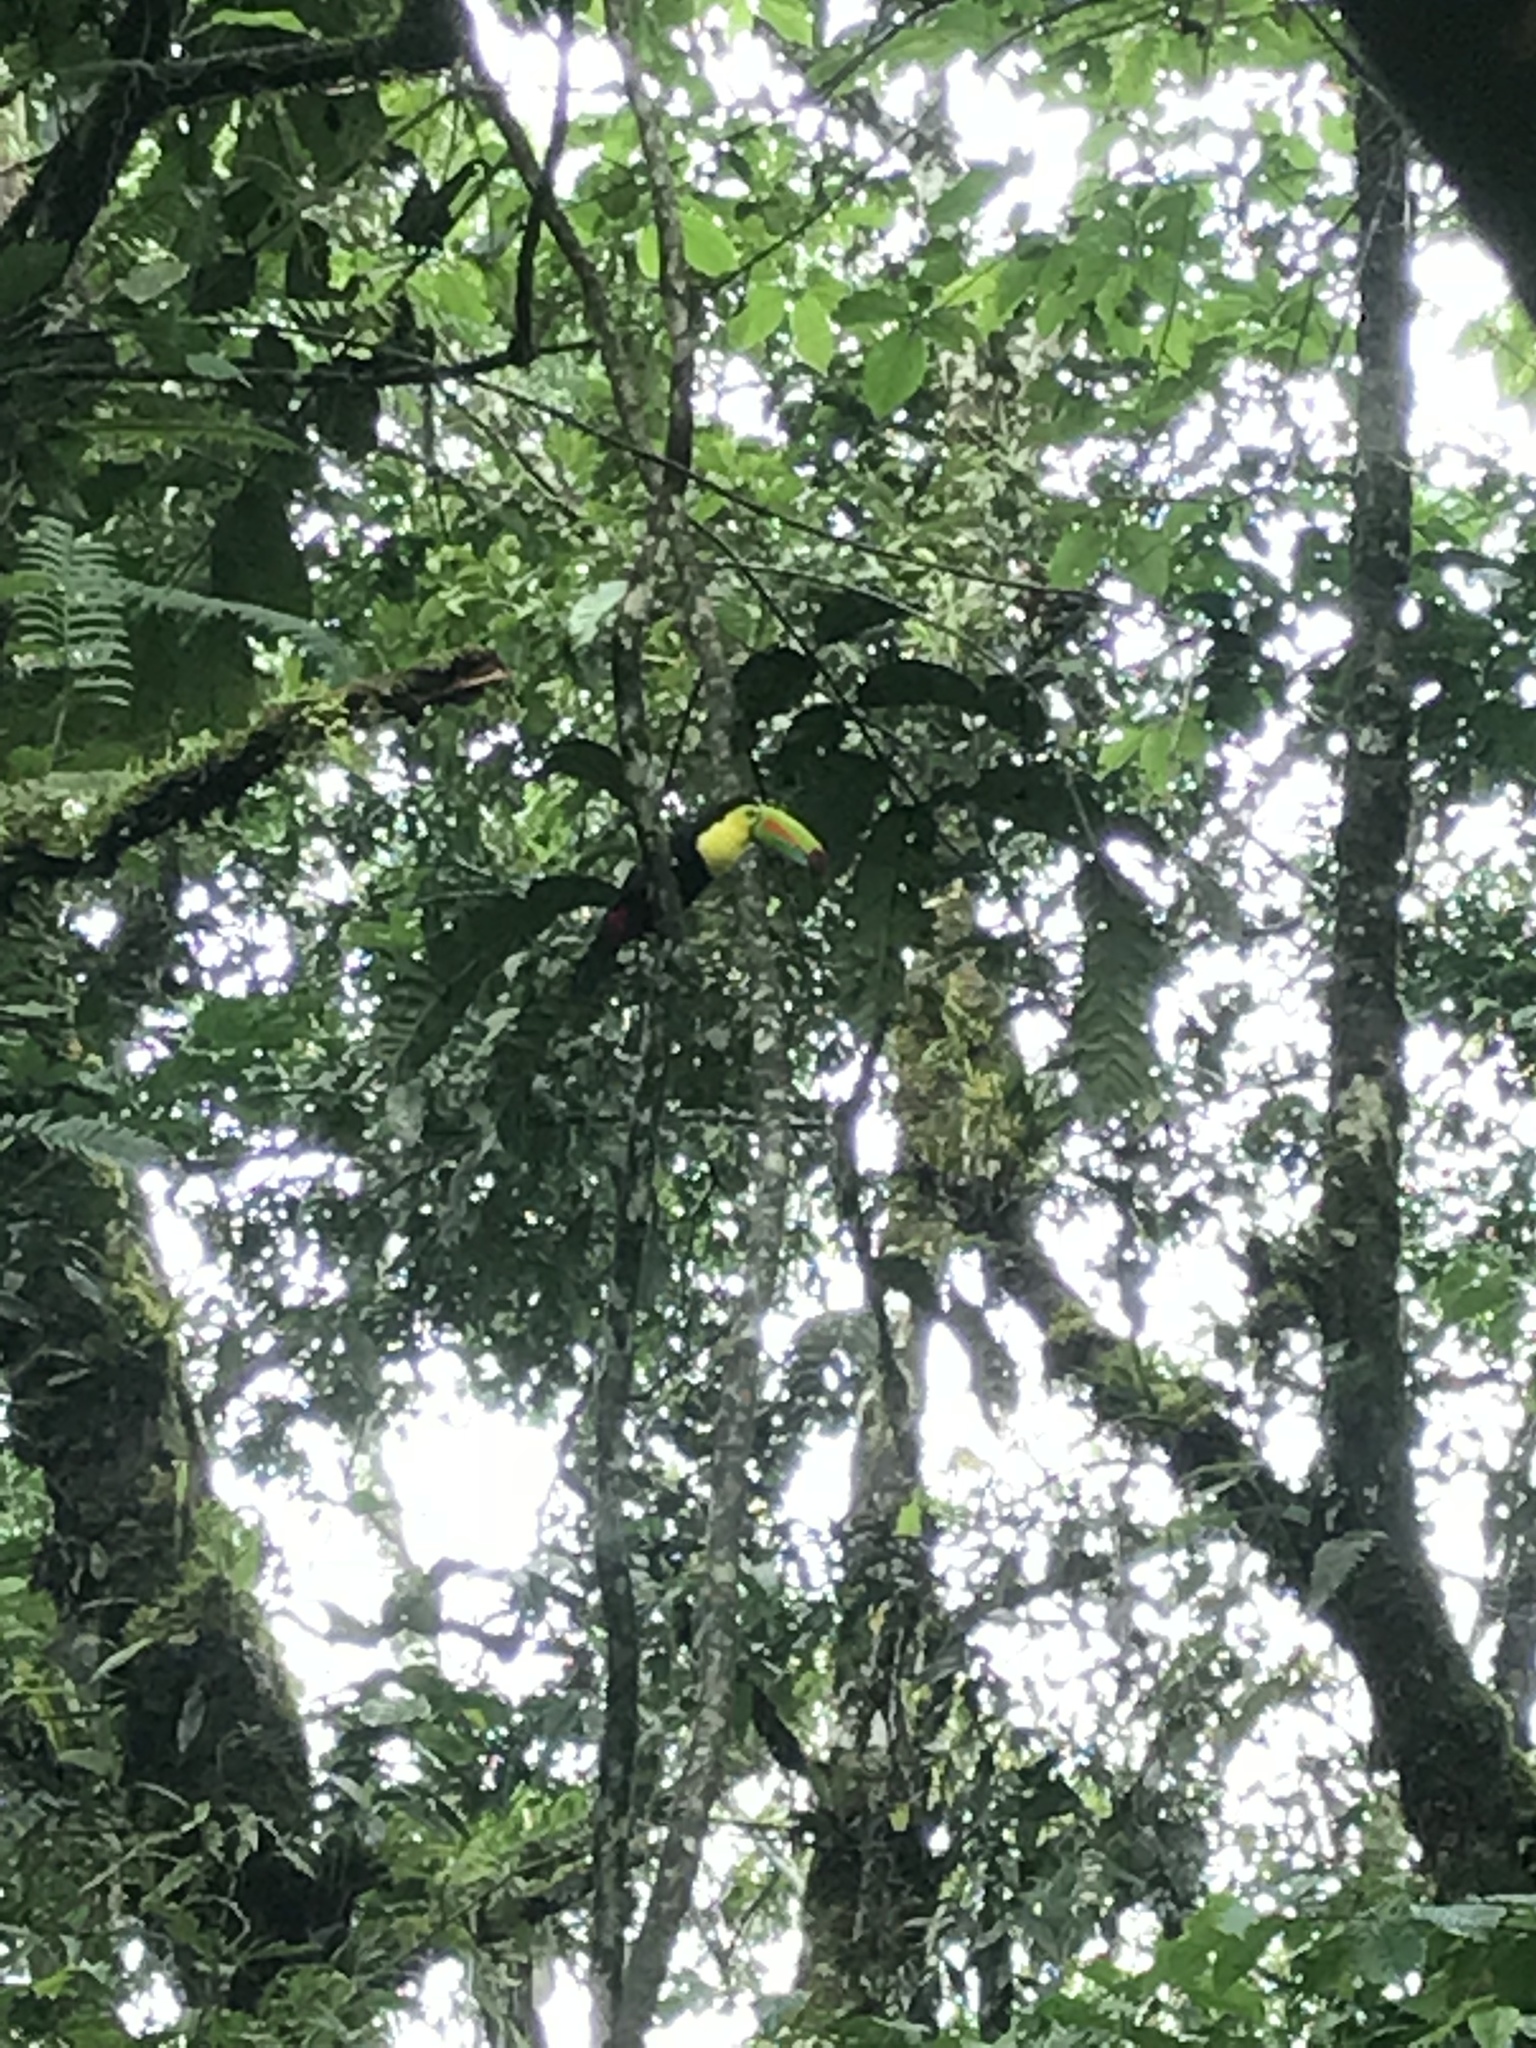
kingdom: Animalia
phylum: Chordata
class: Aves
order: Piciformes
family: Ramphastidae
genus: Ramphastos
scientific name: Ramphastos sulfuratus
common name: Keel-billed toucan
